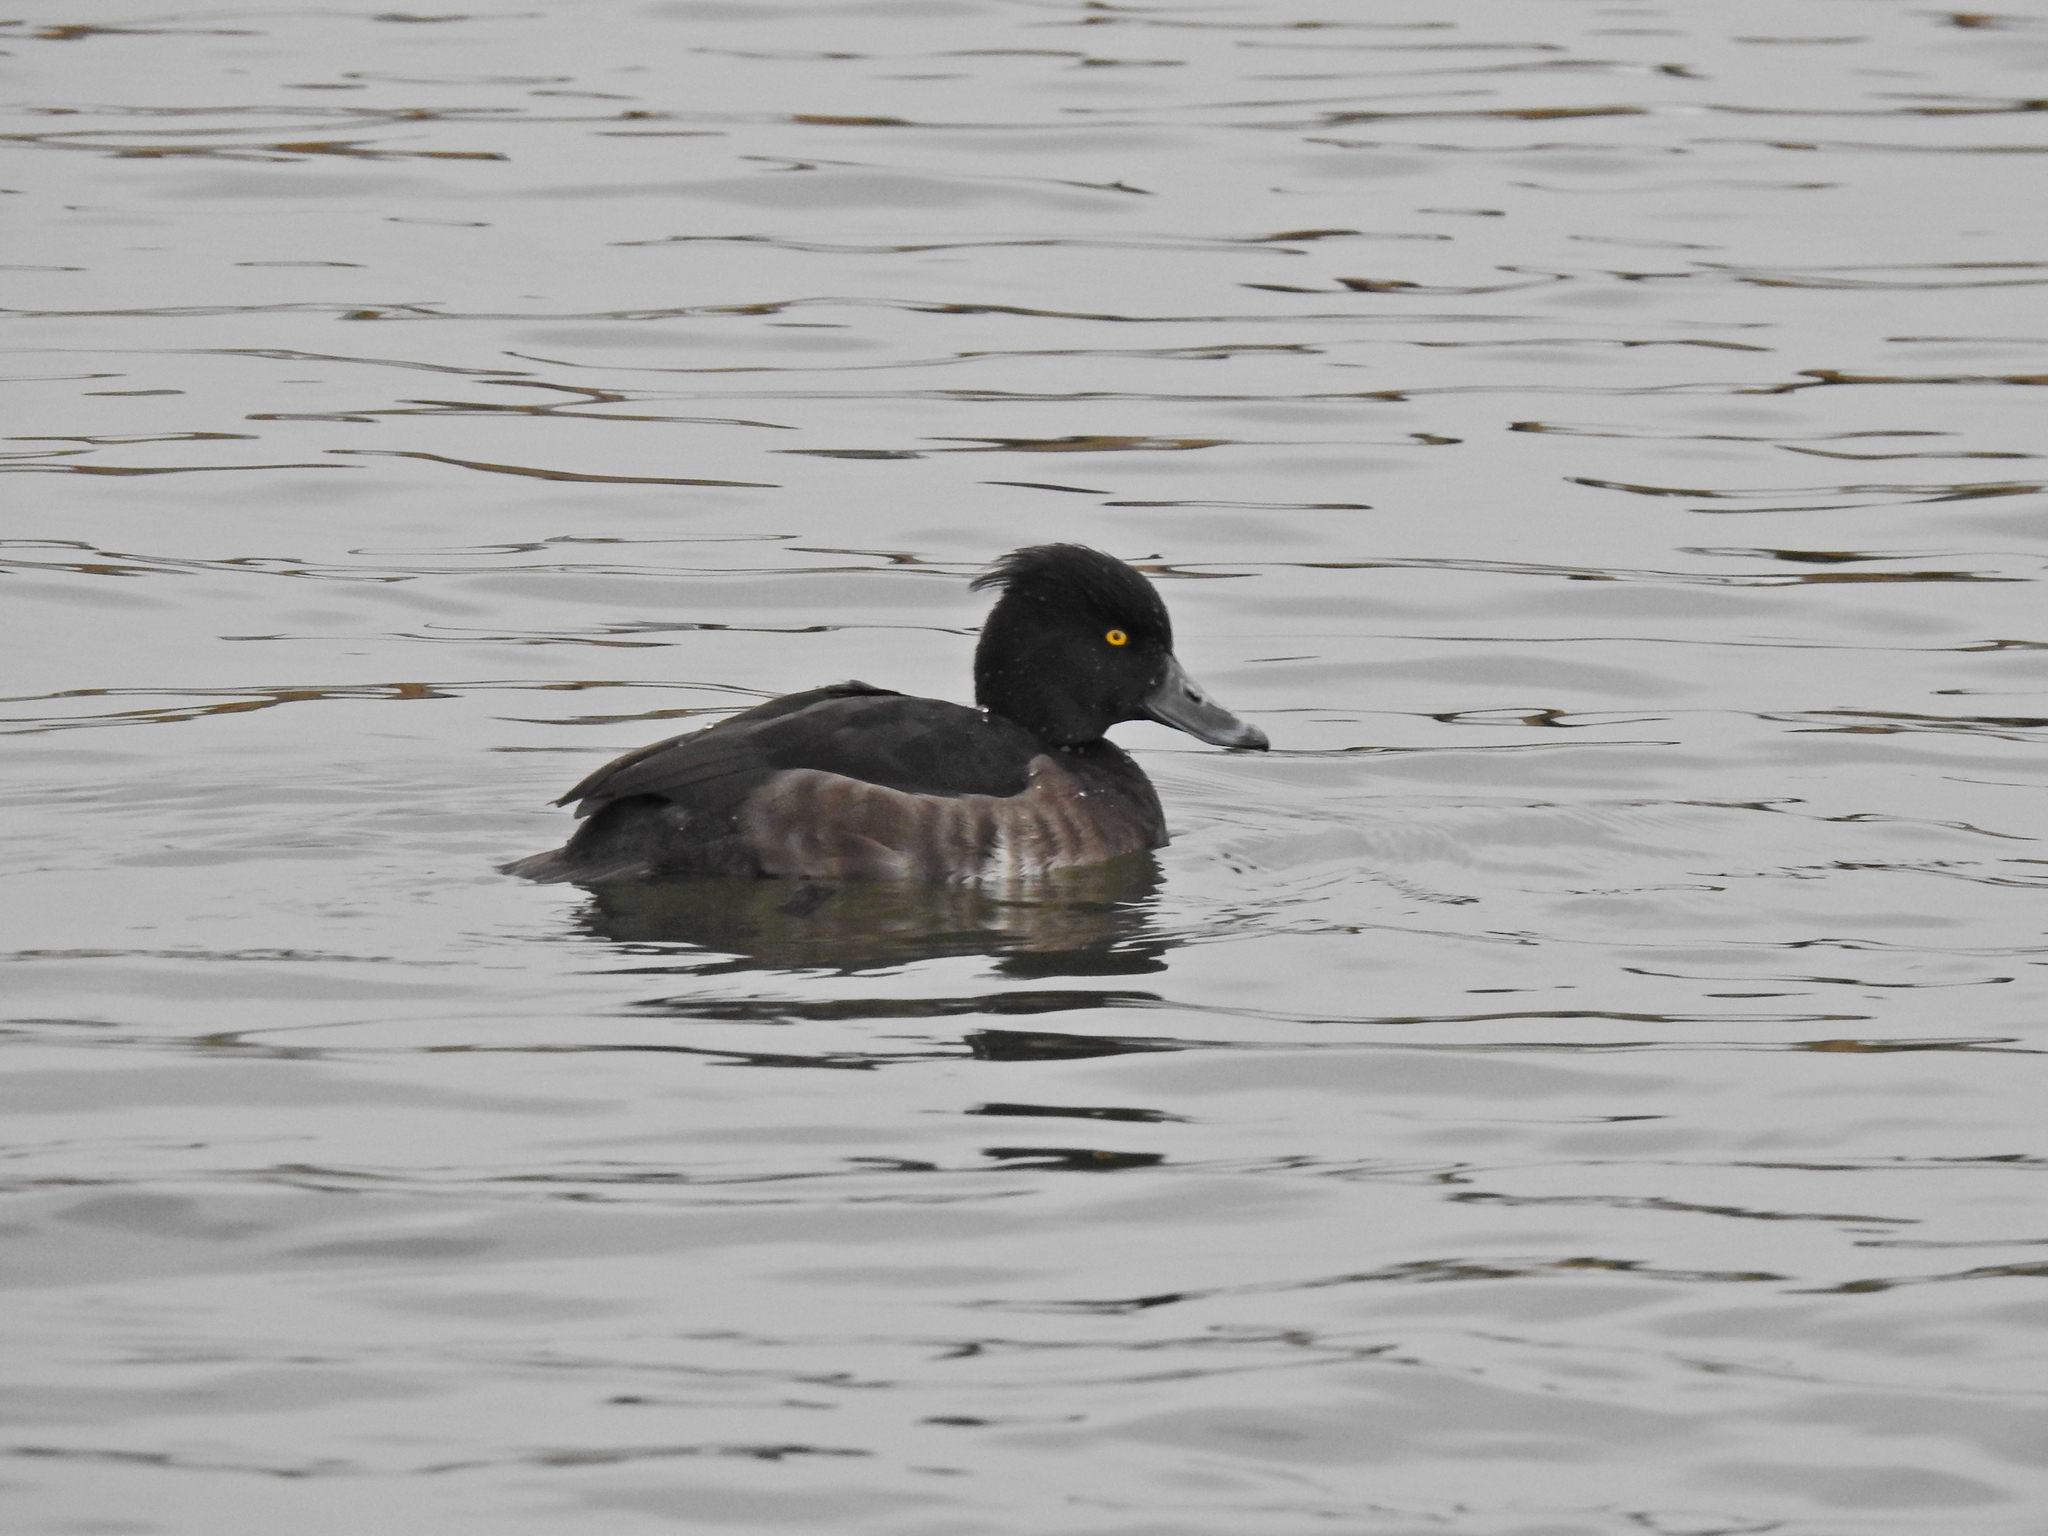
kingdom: Animalia
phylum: Chordata
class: Aves
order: Anseriformes
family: Anatidae
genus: Aythya
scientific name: Aythya fuligula
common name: Tufted duck
